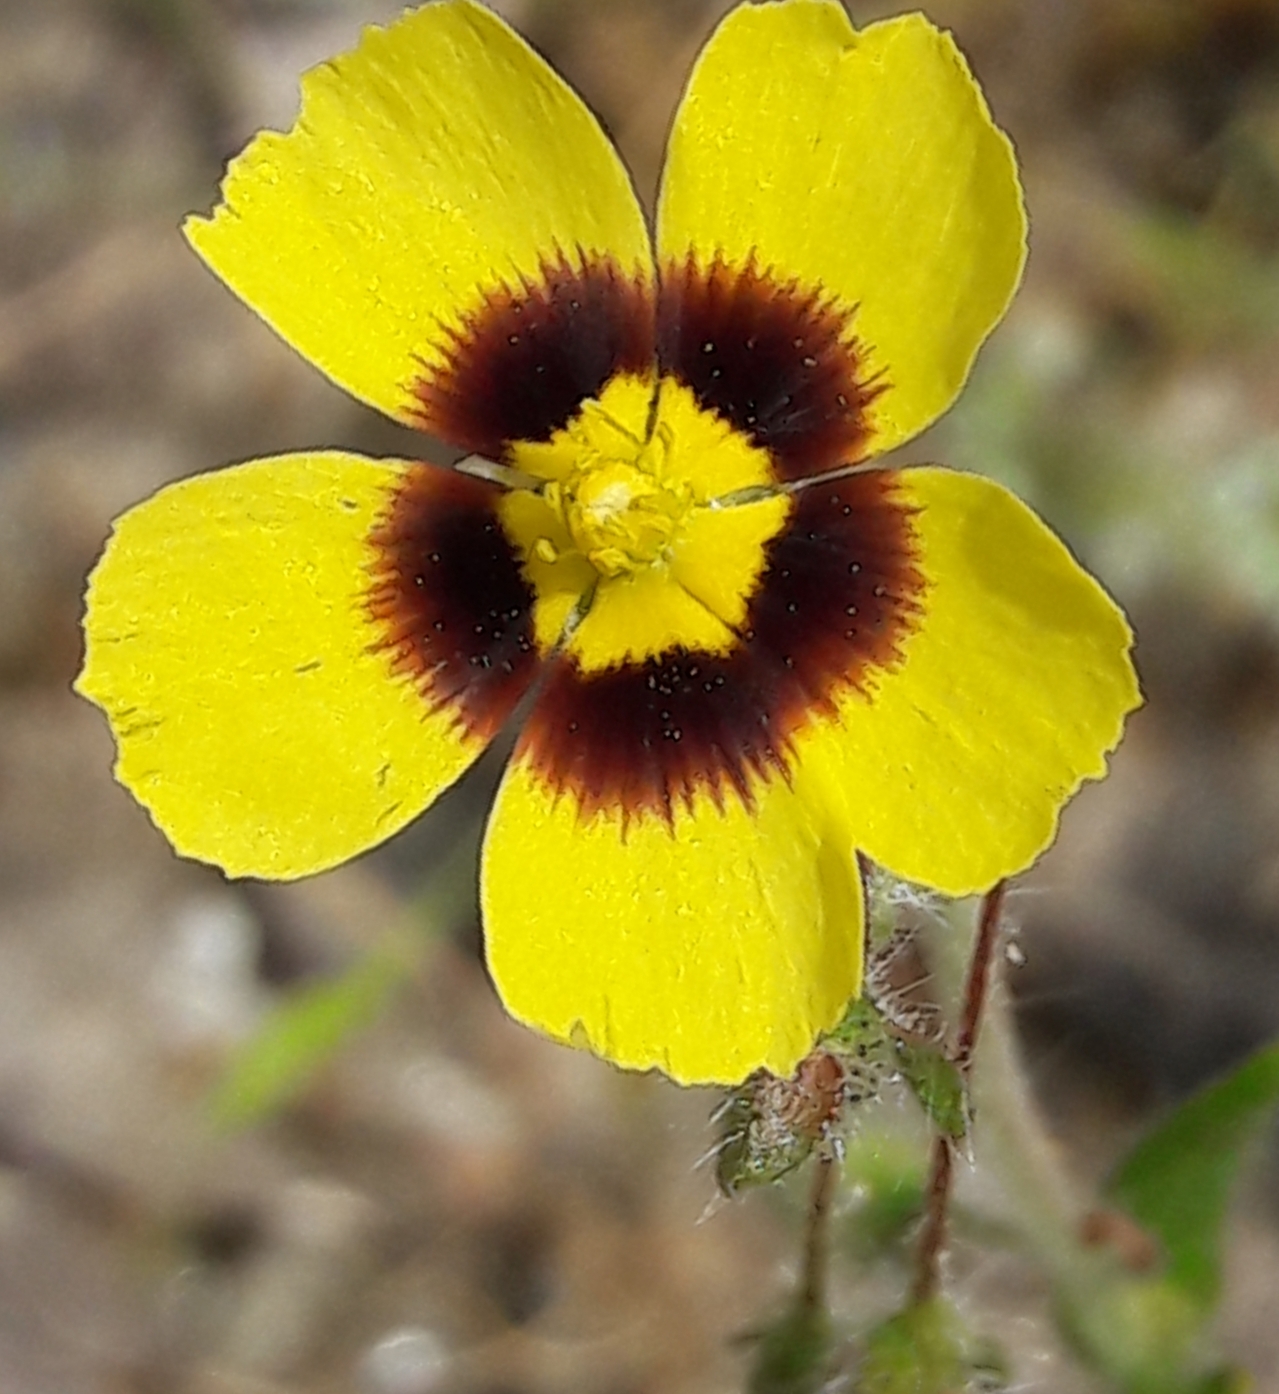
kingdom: Plantae
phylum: Tracheophyta
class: Magnoliopsida
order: Malvales
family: Cistaceae
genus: Tuberaria
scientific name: Tuberaria guttata
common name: Spotted rock-rose
